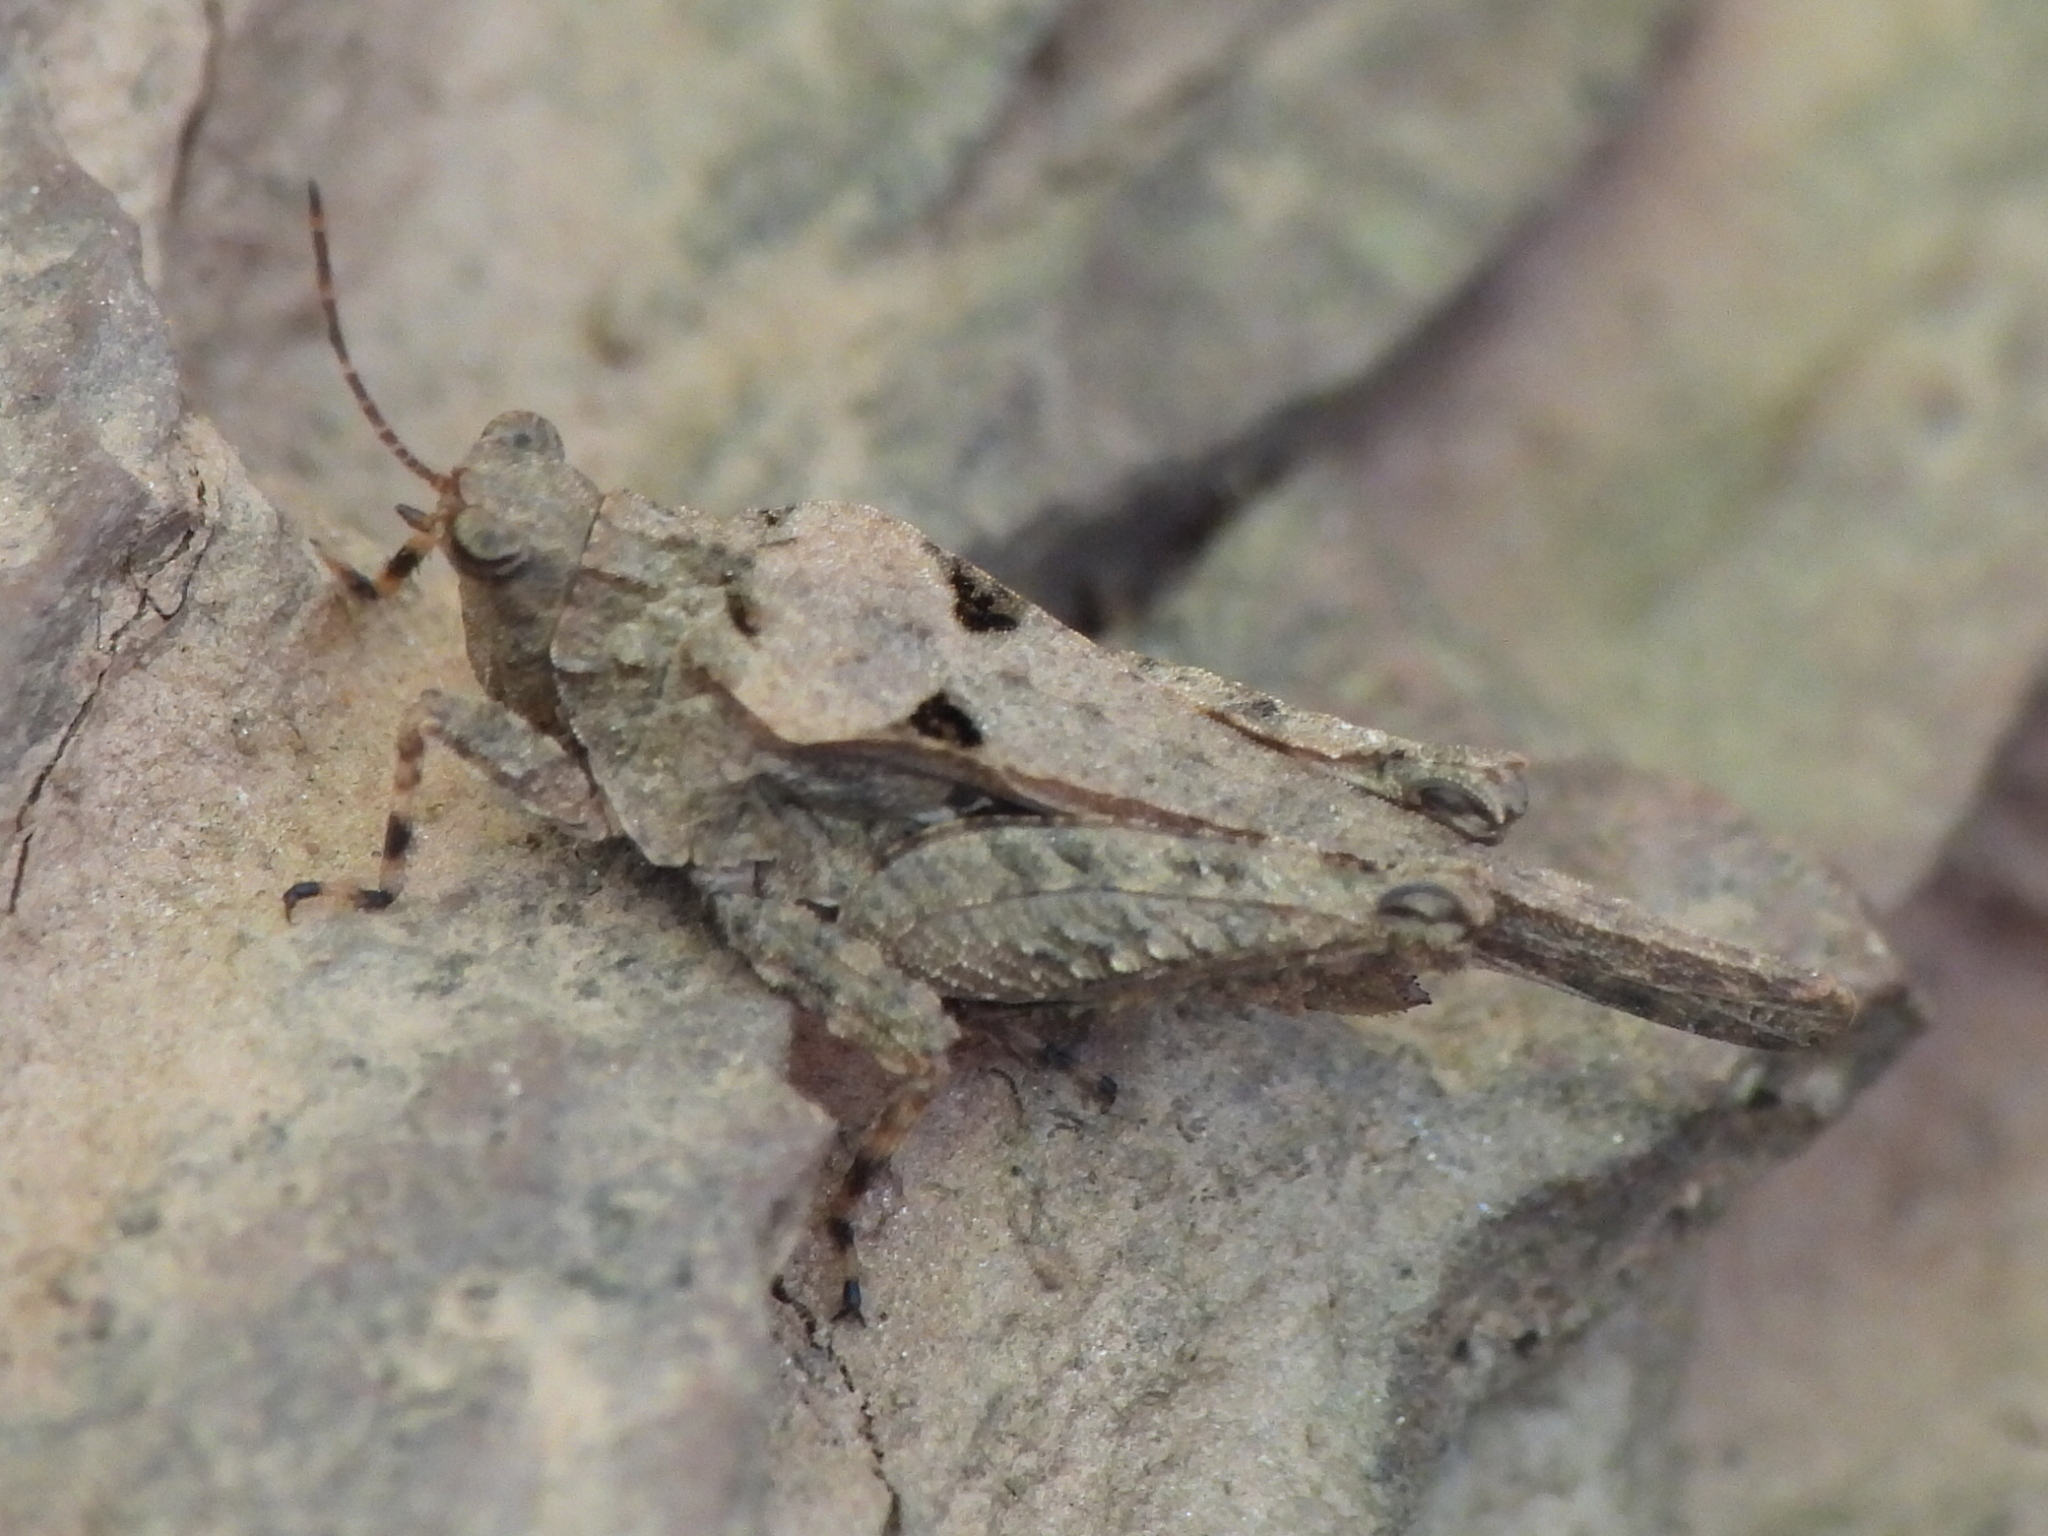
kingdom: Animalia
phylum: Arthropoda
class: Insecta
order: Orthoptera
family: Tetrigidae
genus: Tetrix
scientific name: Tetrix arenosa
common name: Ornate pygmy grasshopper
